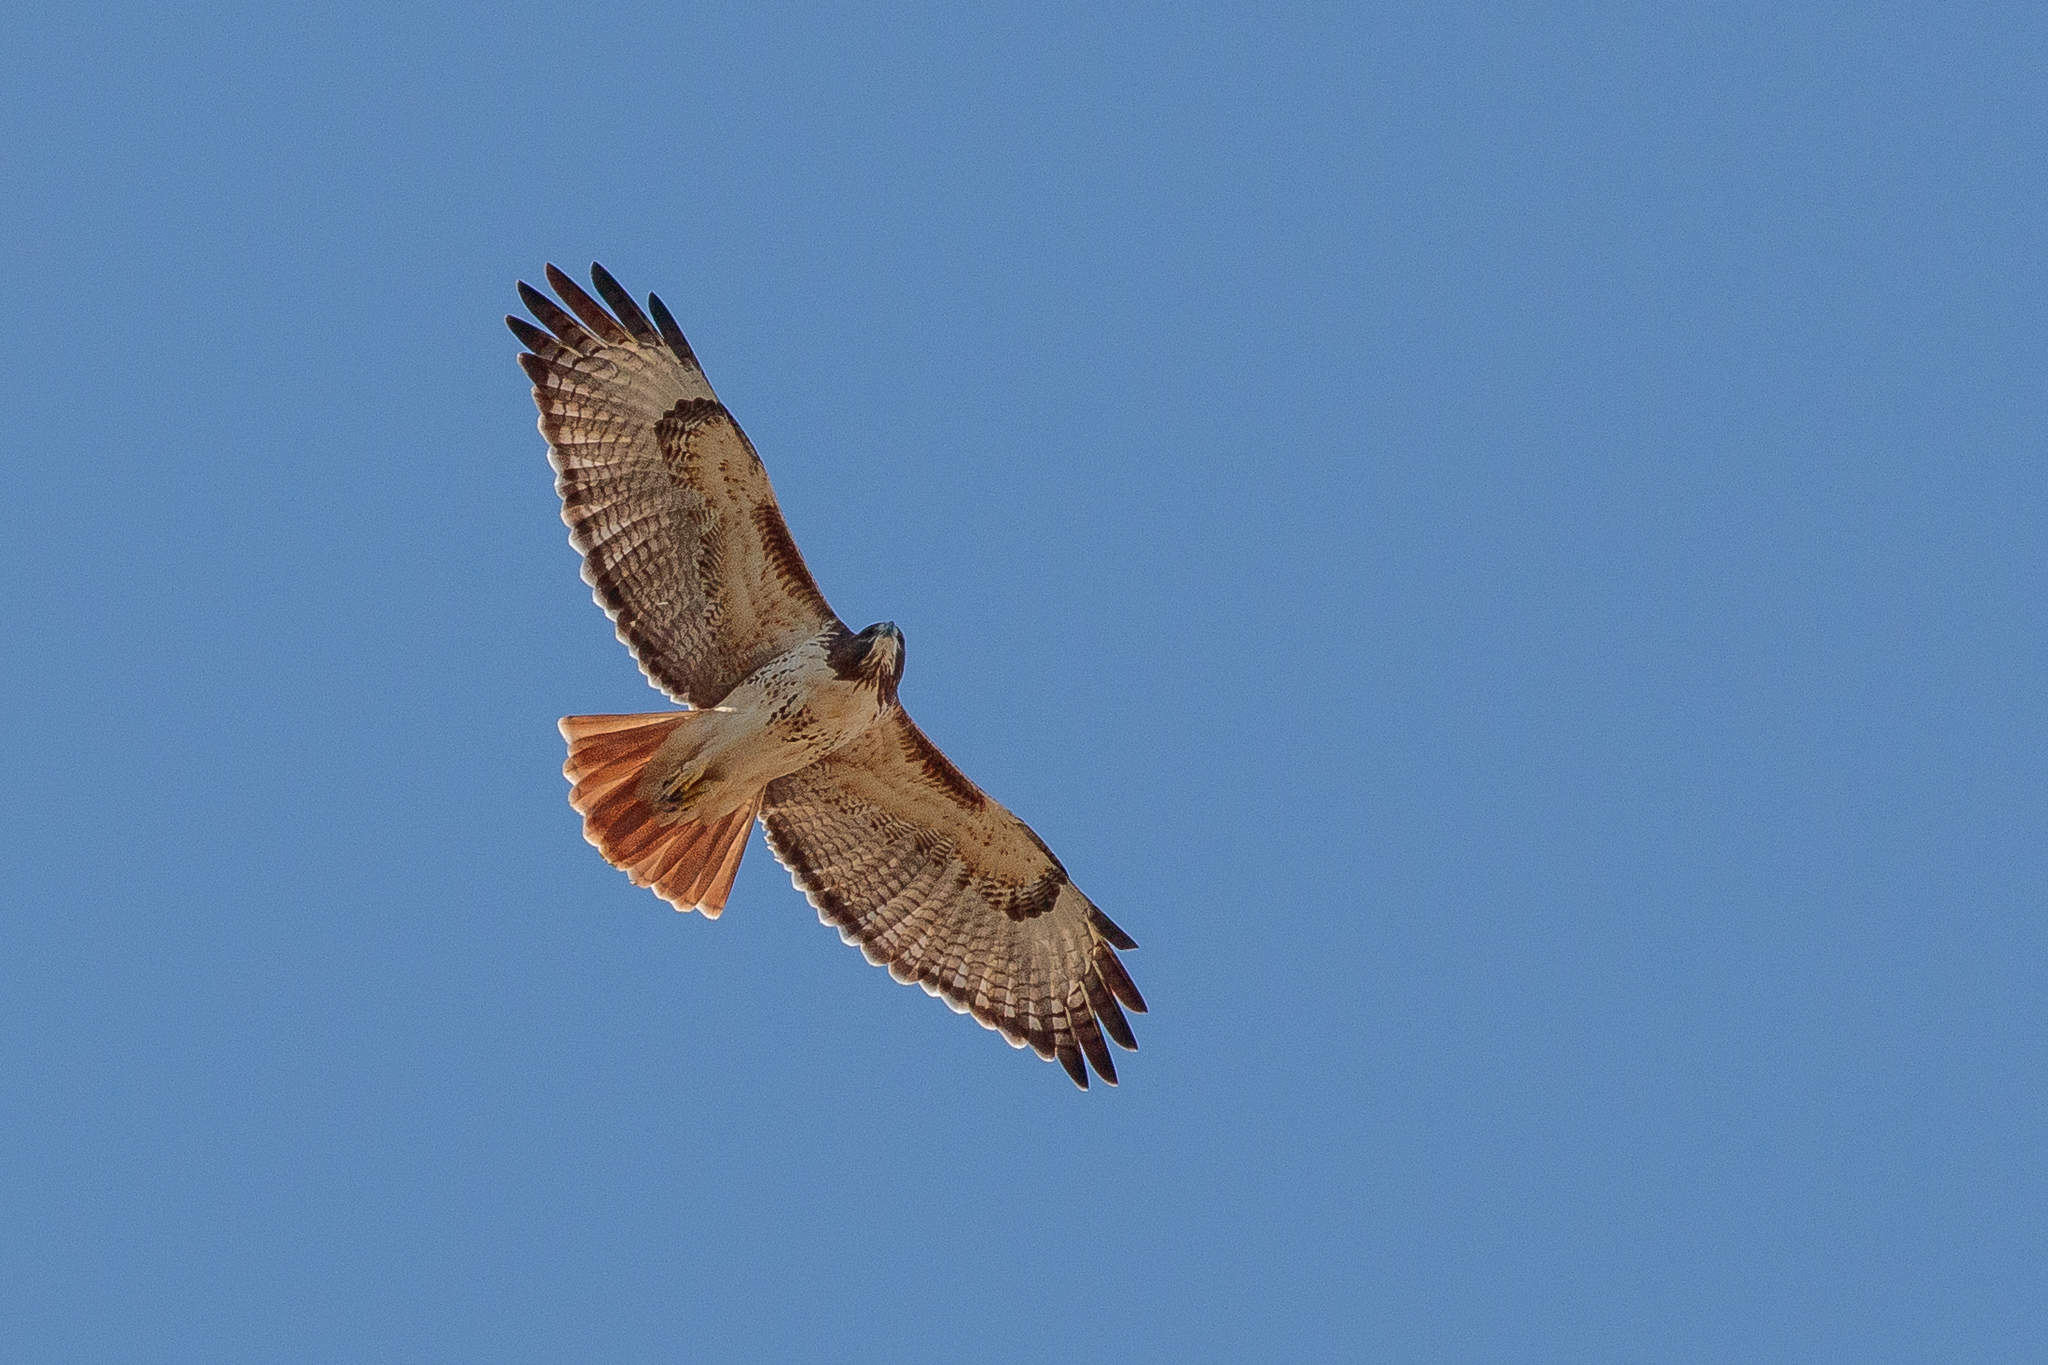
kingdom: Animalia
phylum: Chordata
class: Aves
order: Accipitriformes
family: Accipitridae
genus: Buteo
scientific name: Buteo jamaicensis
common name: Red-tailed hawk
